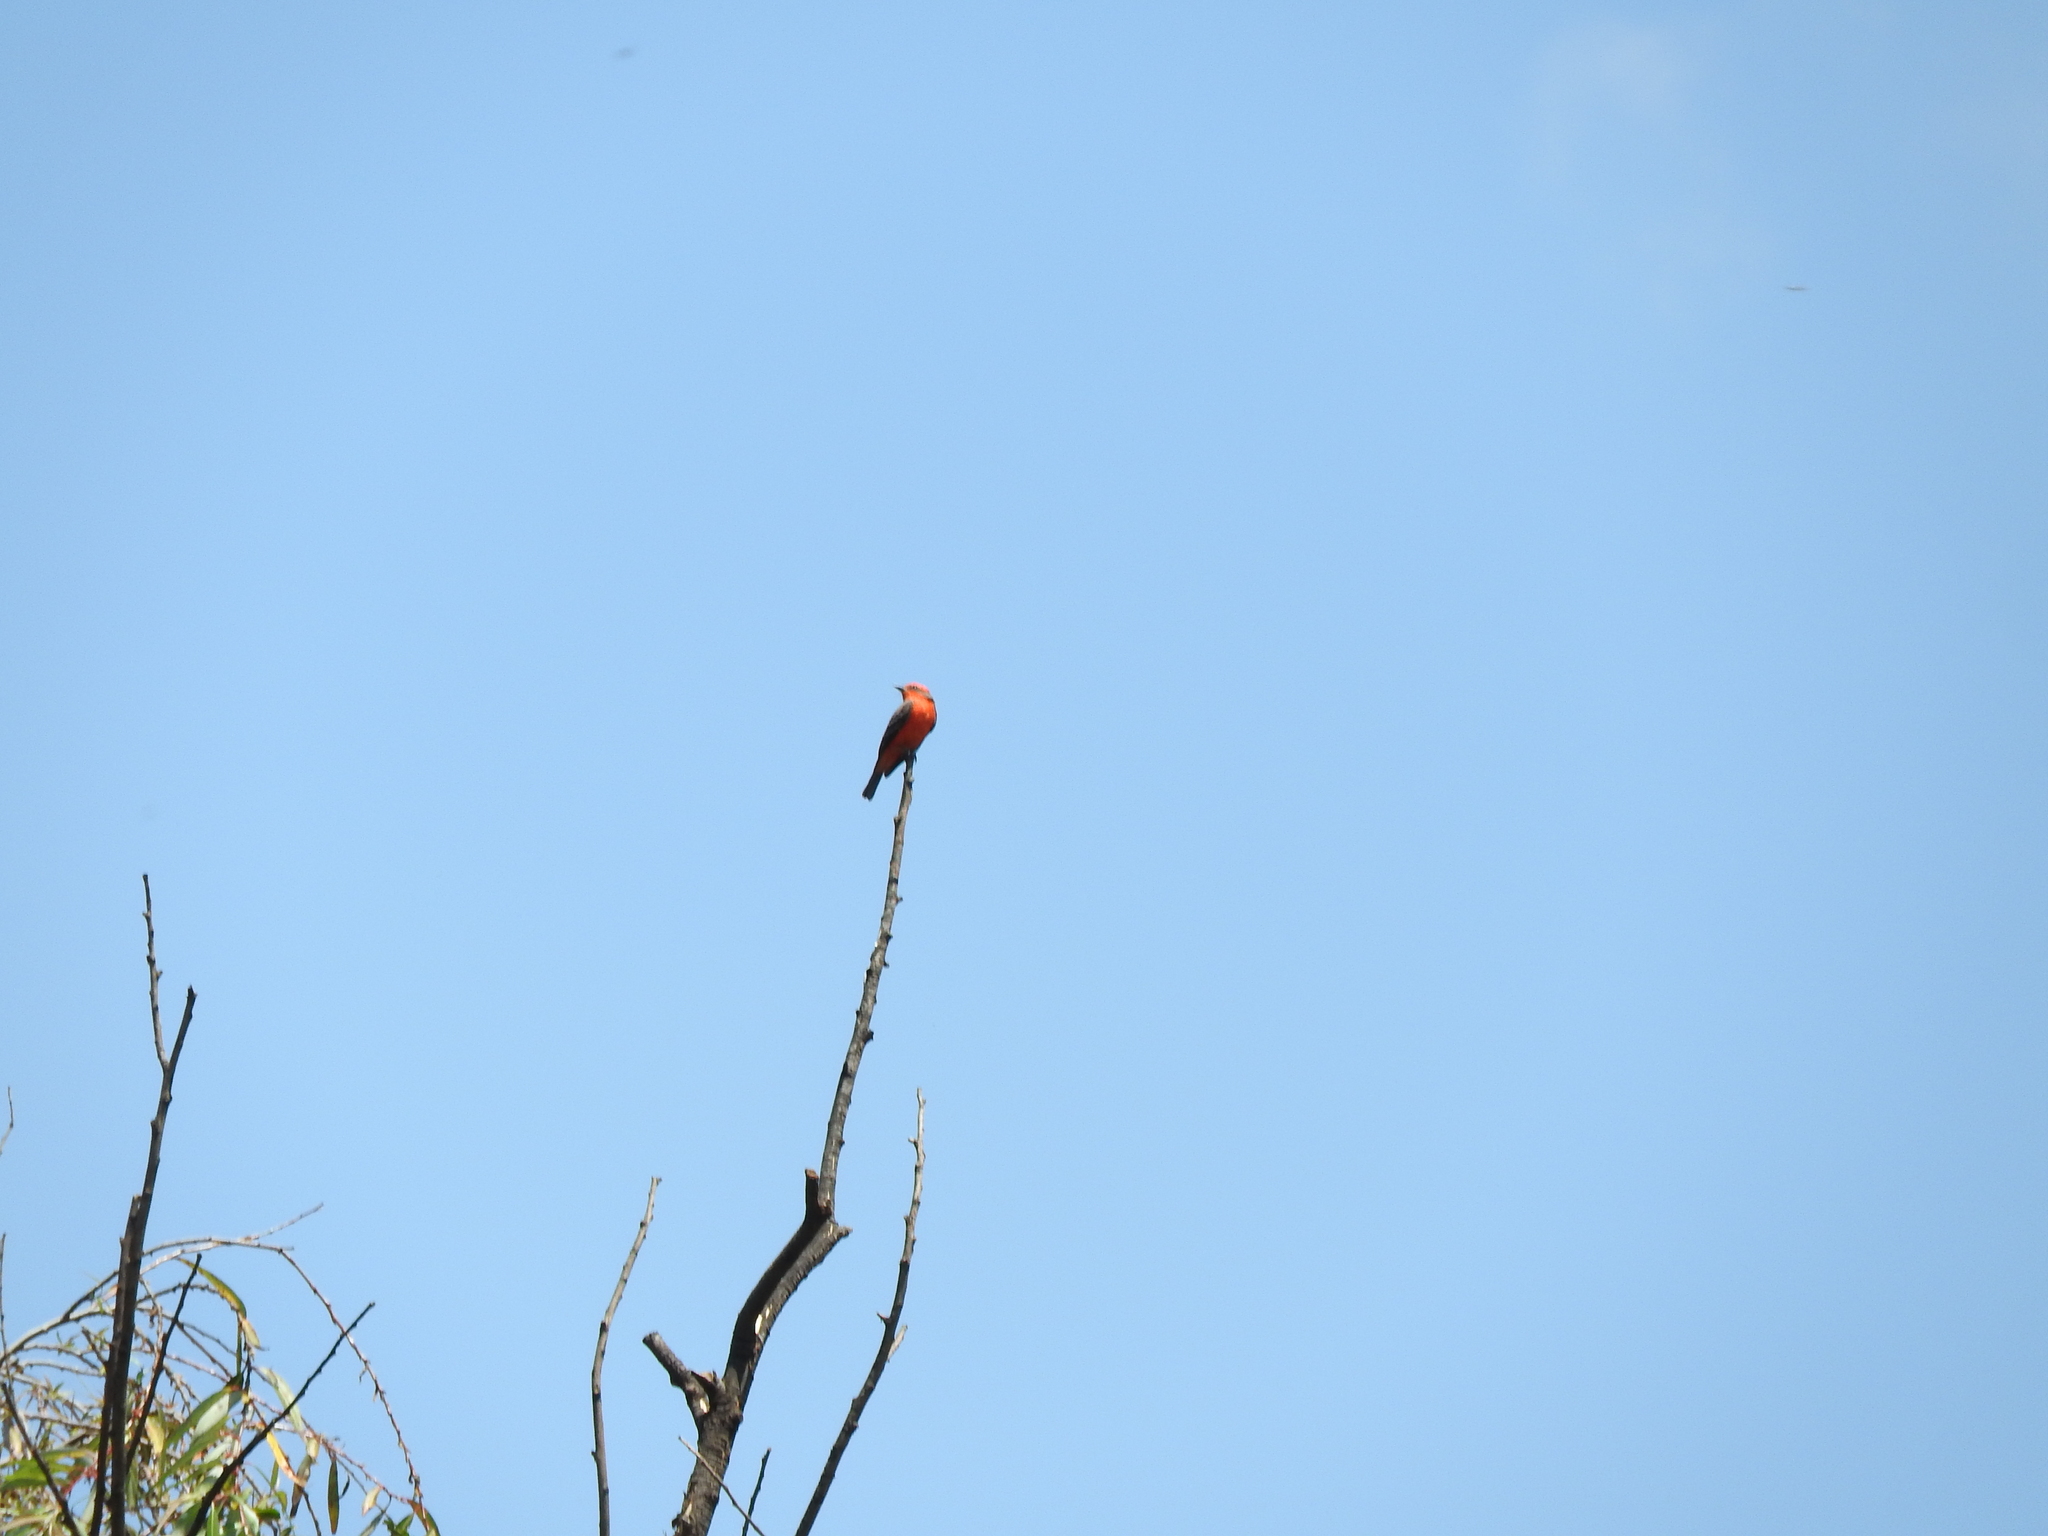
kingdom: Animalia
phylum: Chordata
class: Aves
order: Passeriformes
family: Tyrannidae
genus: Pyrocephalus
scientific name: Pyrocephalus rubinus
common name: Vermilion flycatcher
